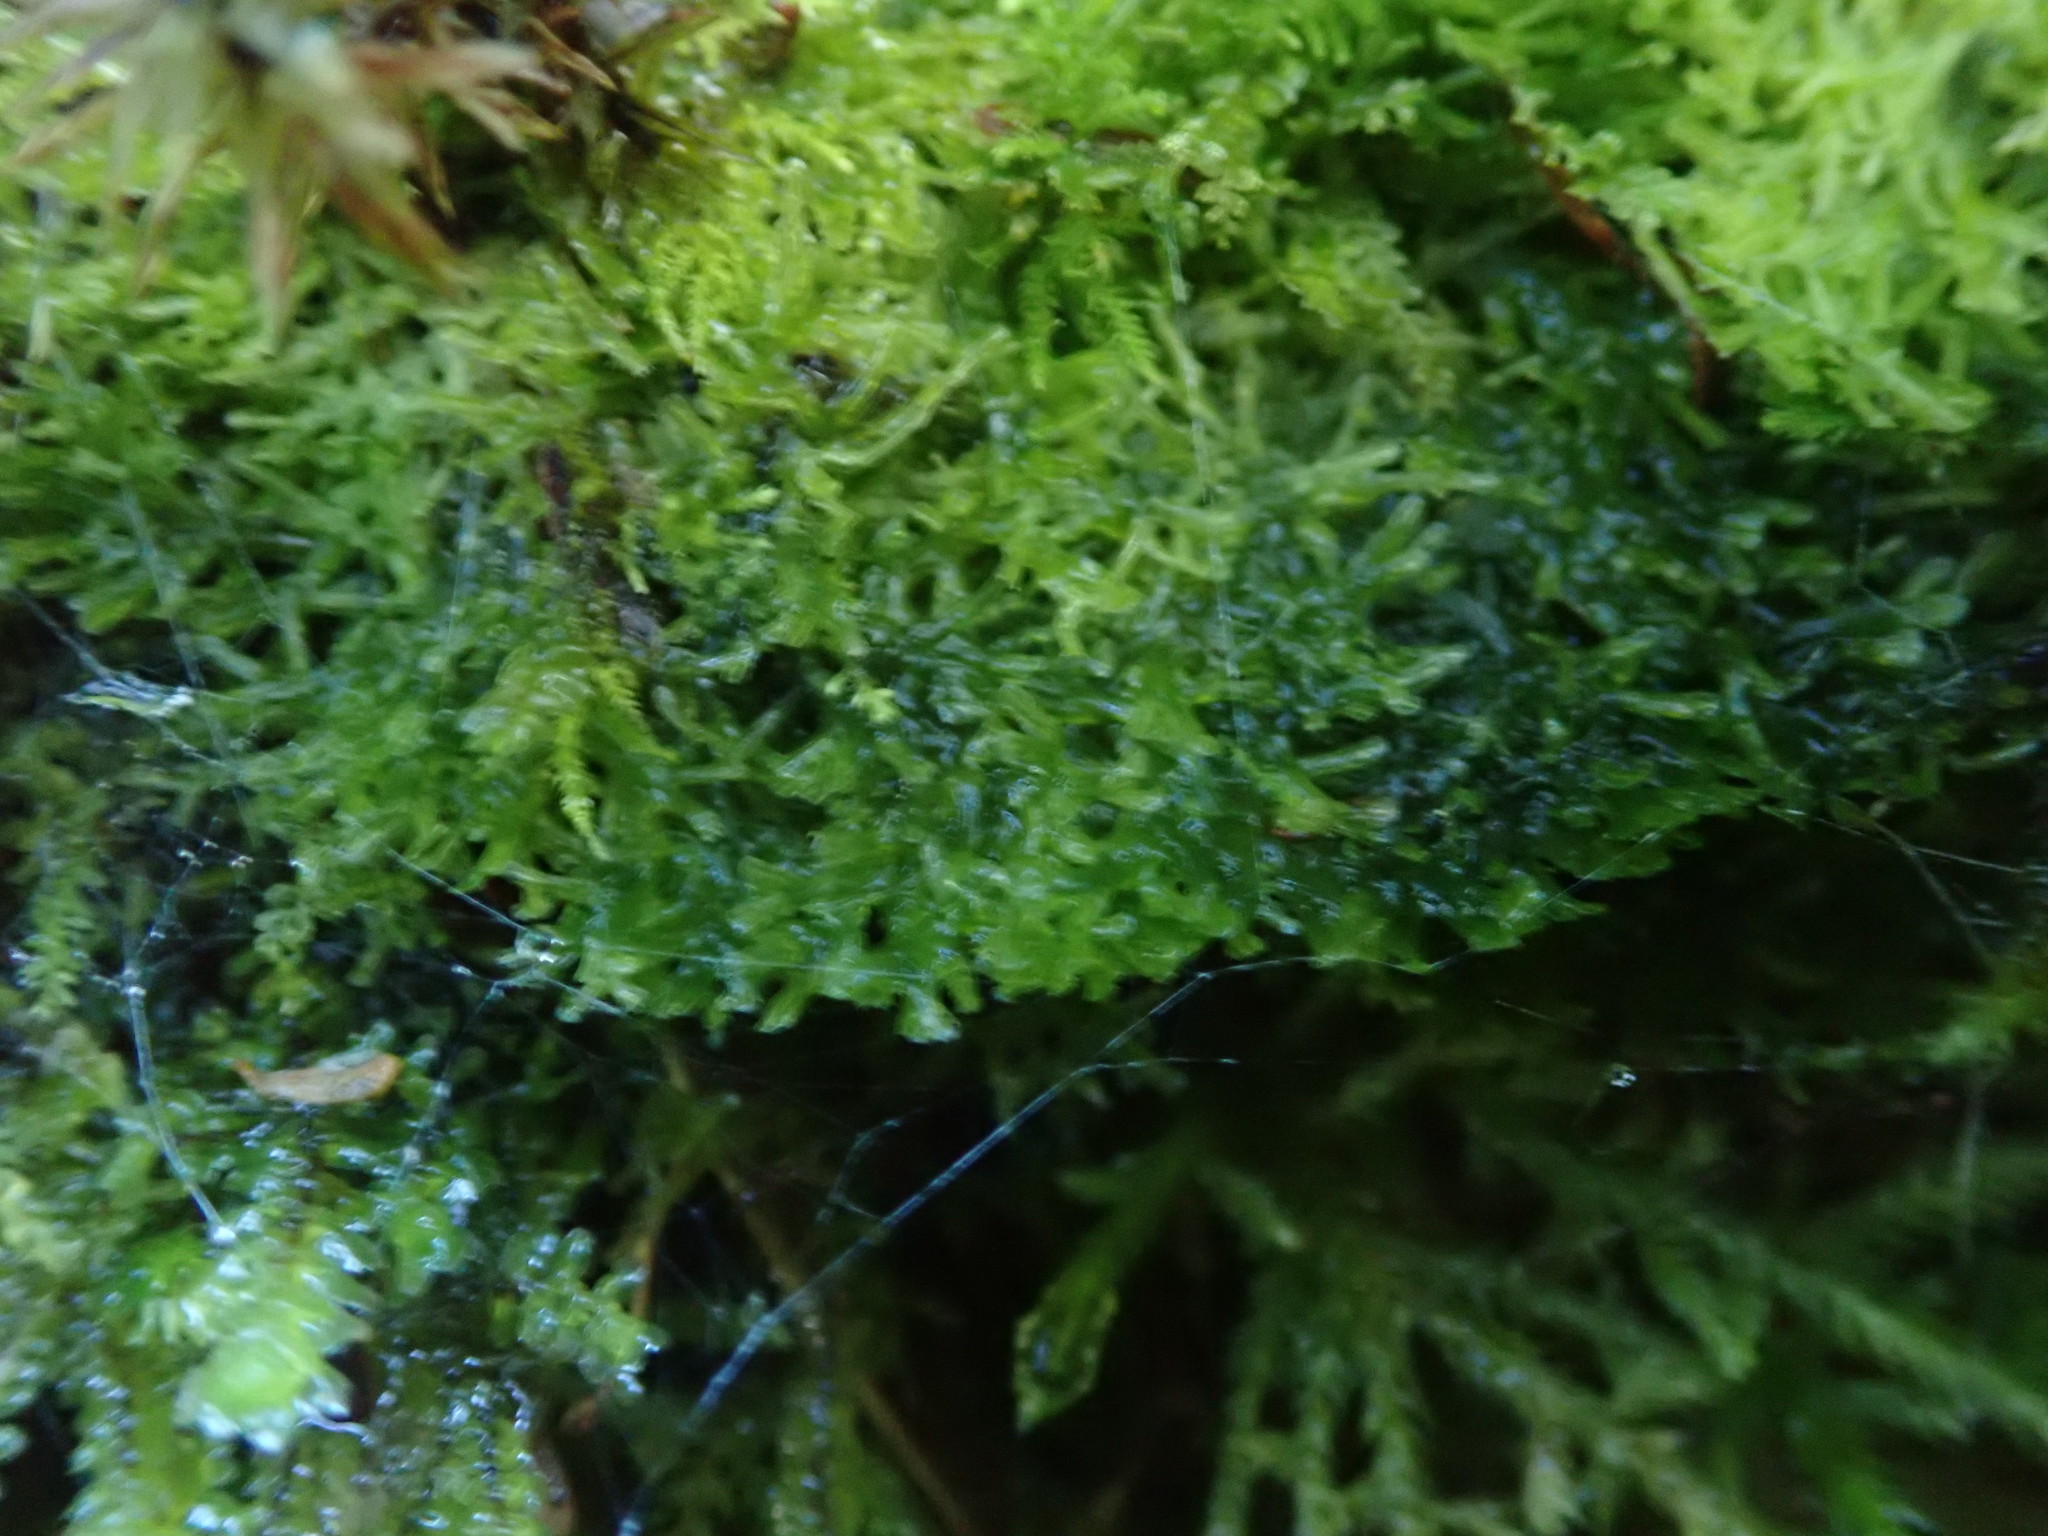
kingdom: Plantae
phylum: Marchantiophyta
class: Jungermanniopsida
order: Metzgeriales
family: Metzgeriaceae
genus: Metzgeria
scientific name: Metzgeria conjugata
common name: Rock veilwort
